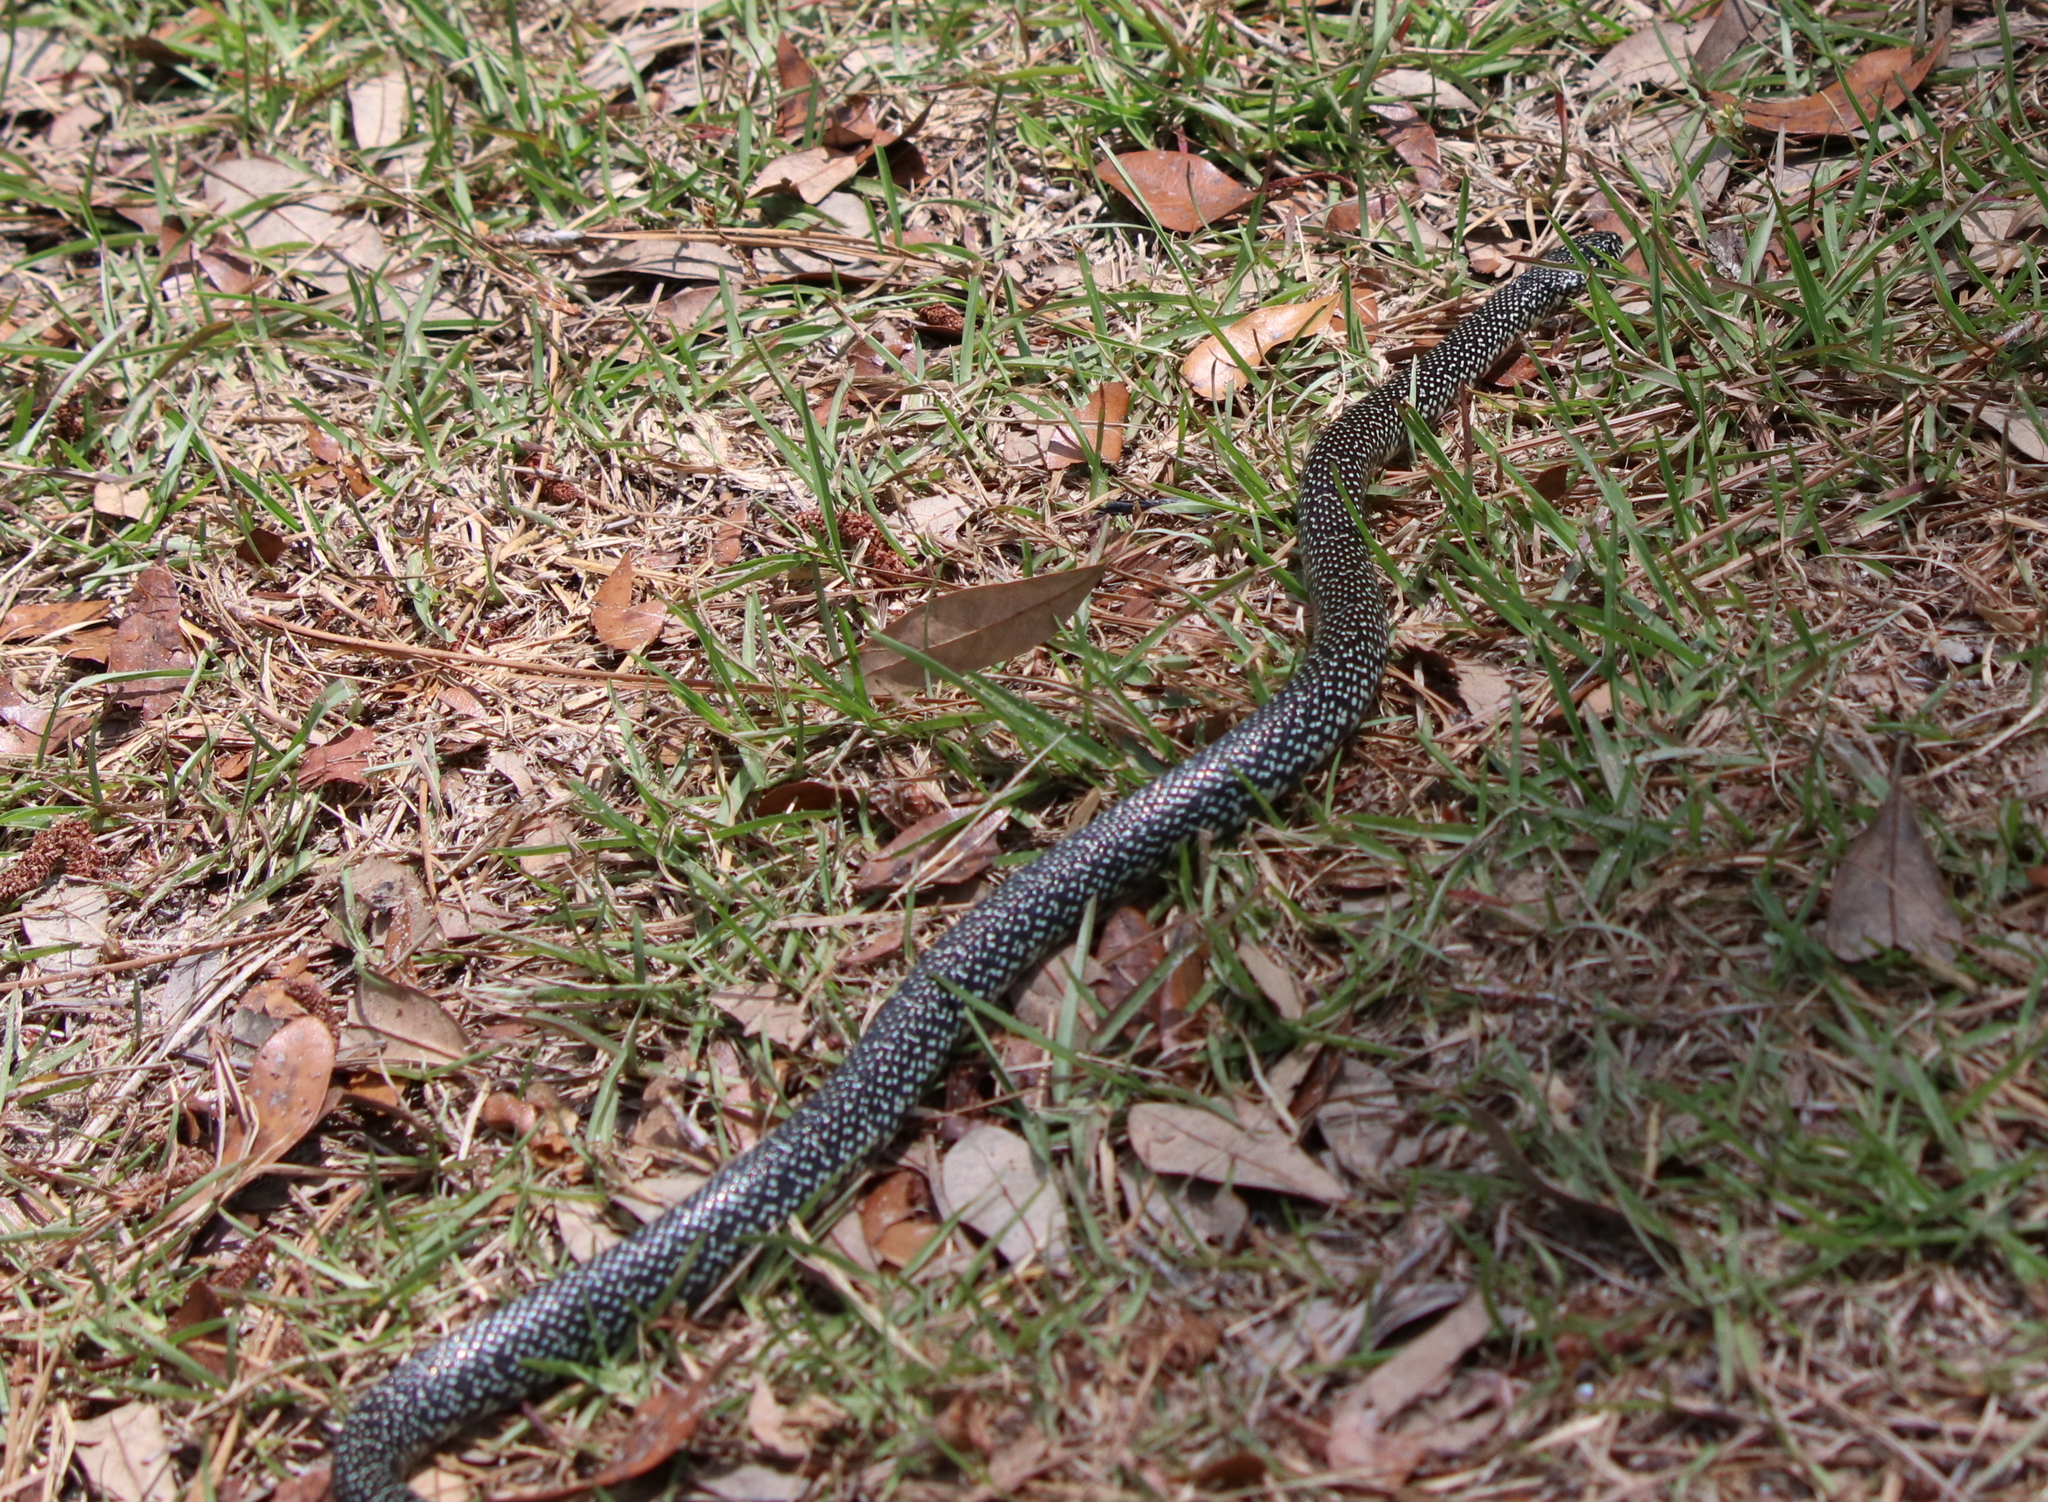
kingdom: Animalia
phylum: Chordata
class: Squamata
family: Colubridae
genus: Lampropeltis
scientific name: Lampropeltis holbrooki
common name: Speckled kingsnake
